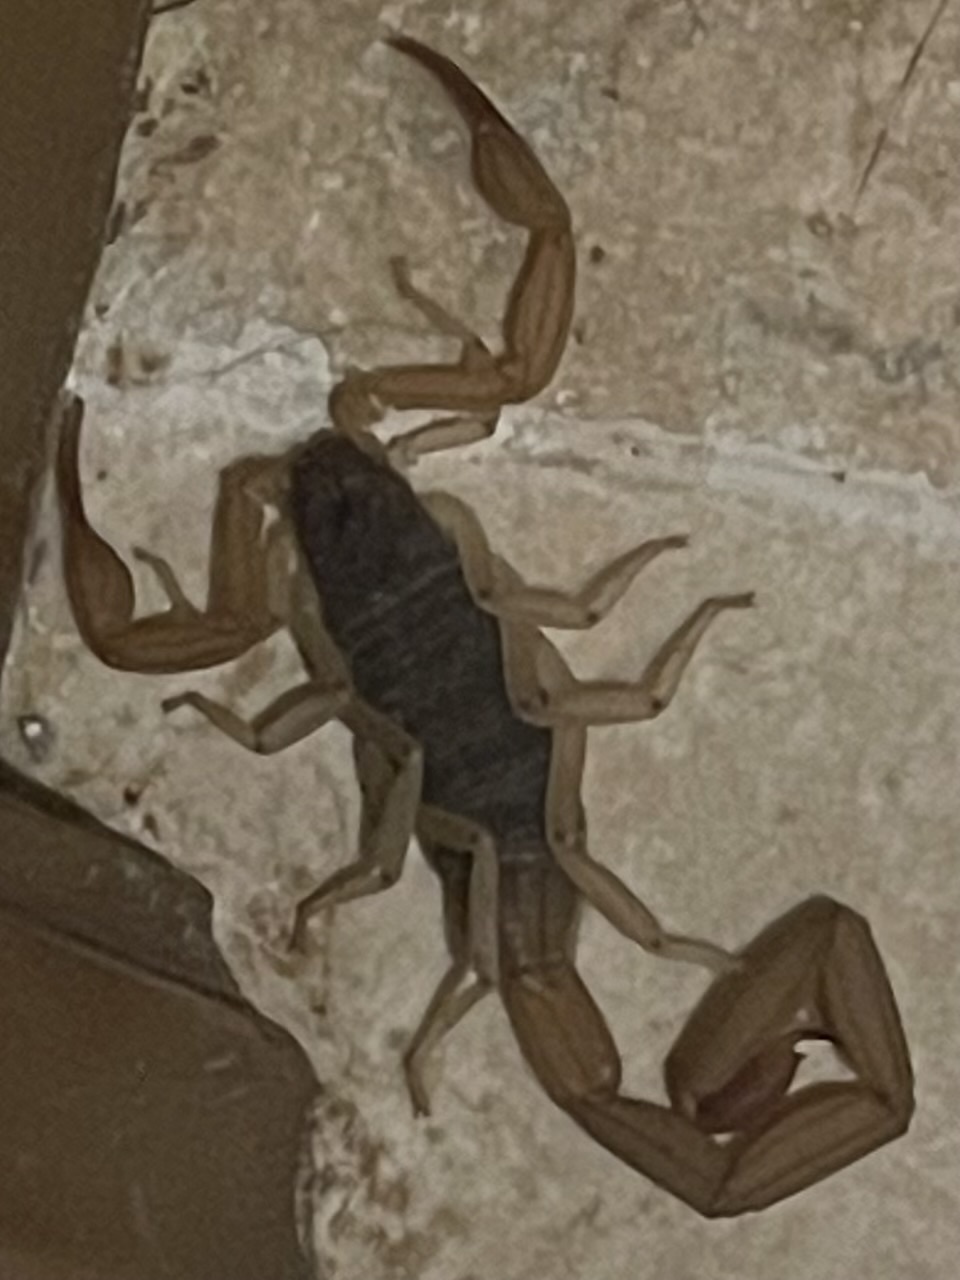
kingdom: Animalia
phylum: Arthropoda
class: Arachnida
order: Scorpiones
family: Buthidae
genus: Centruroides
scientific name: Centruroides ochraceus
